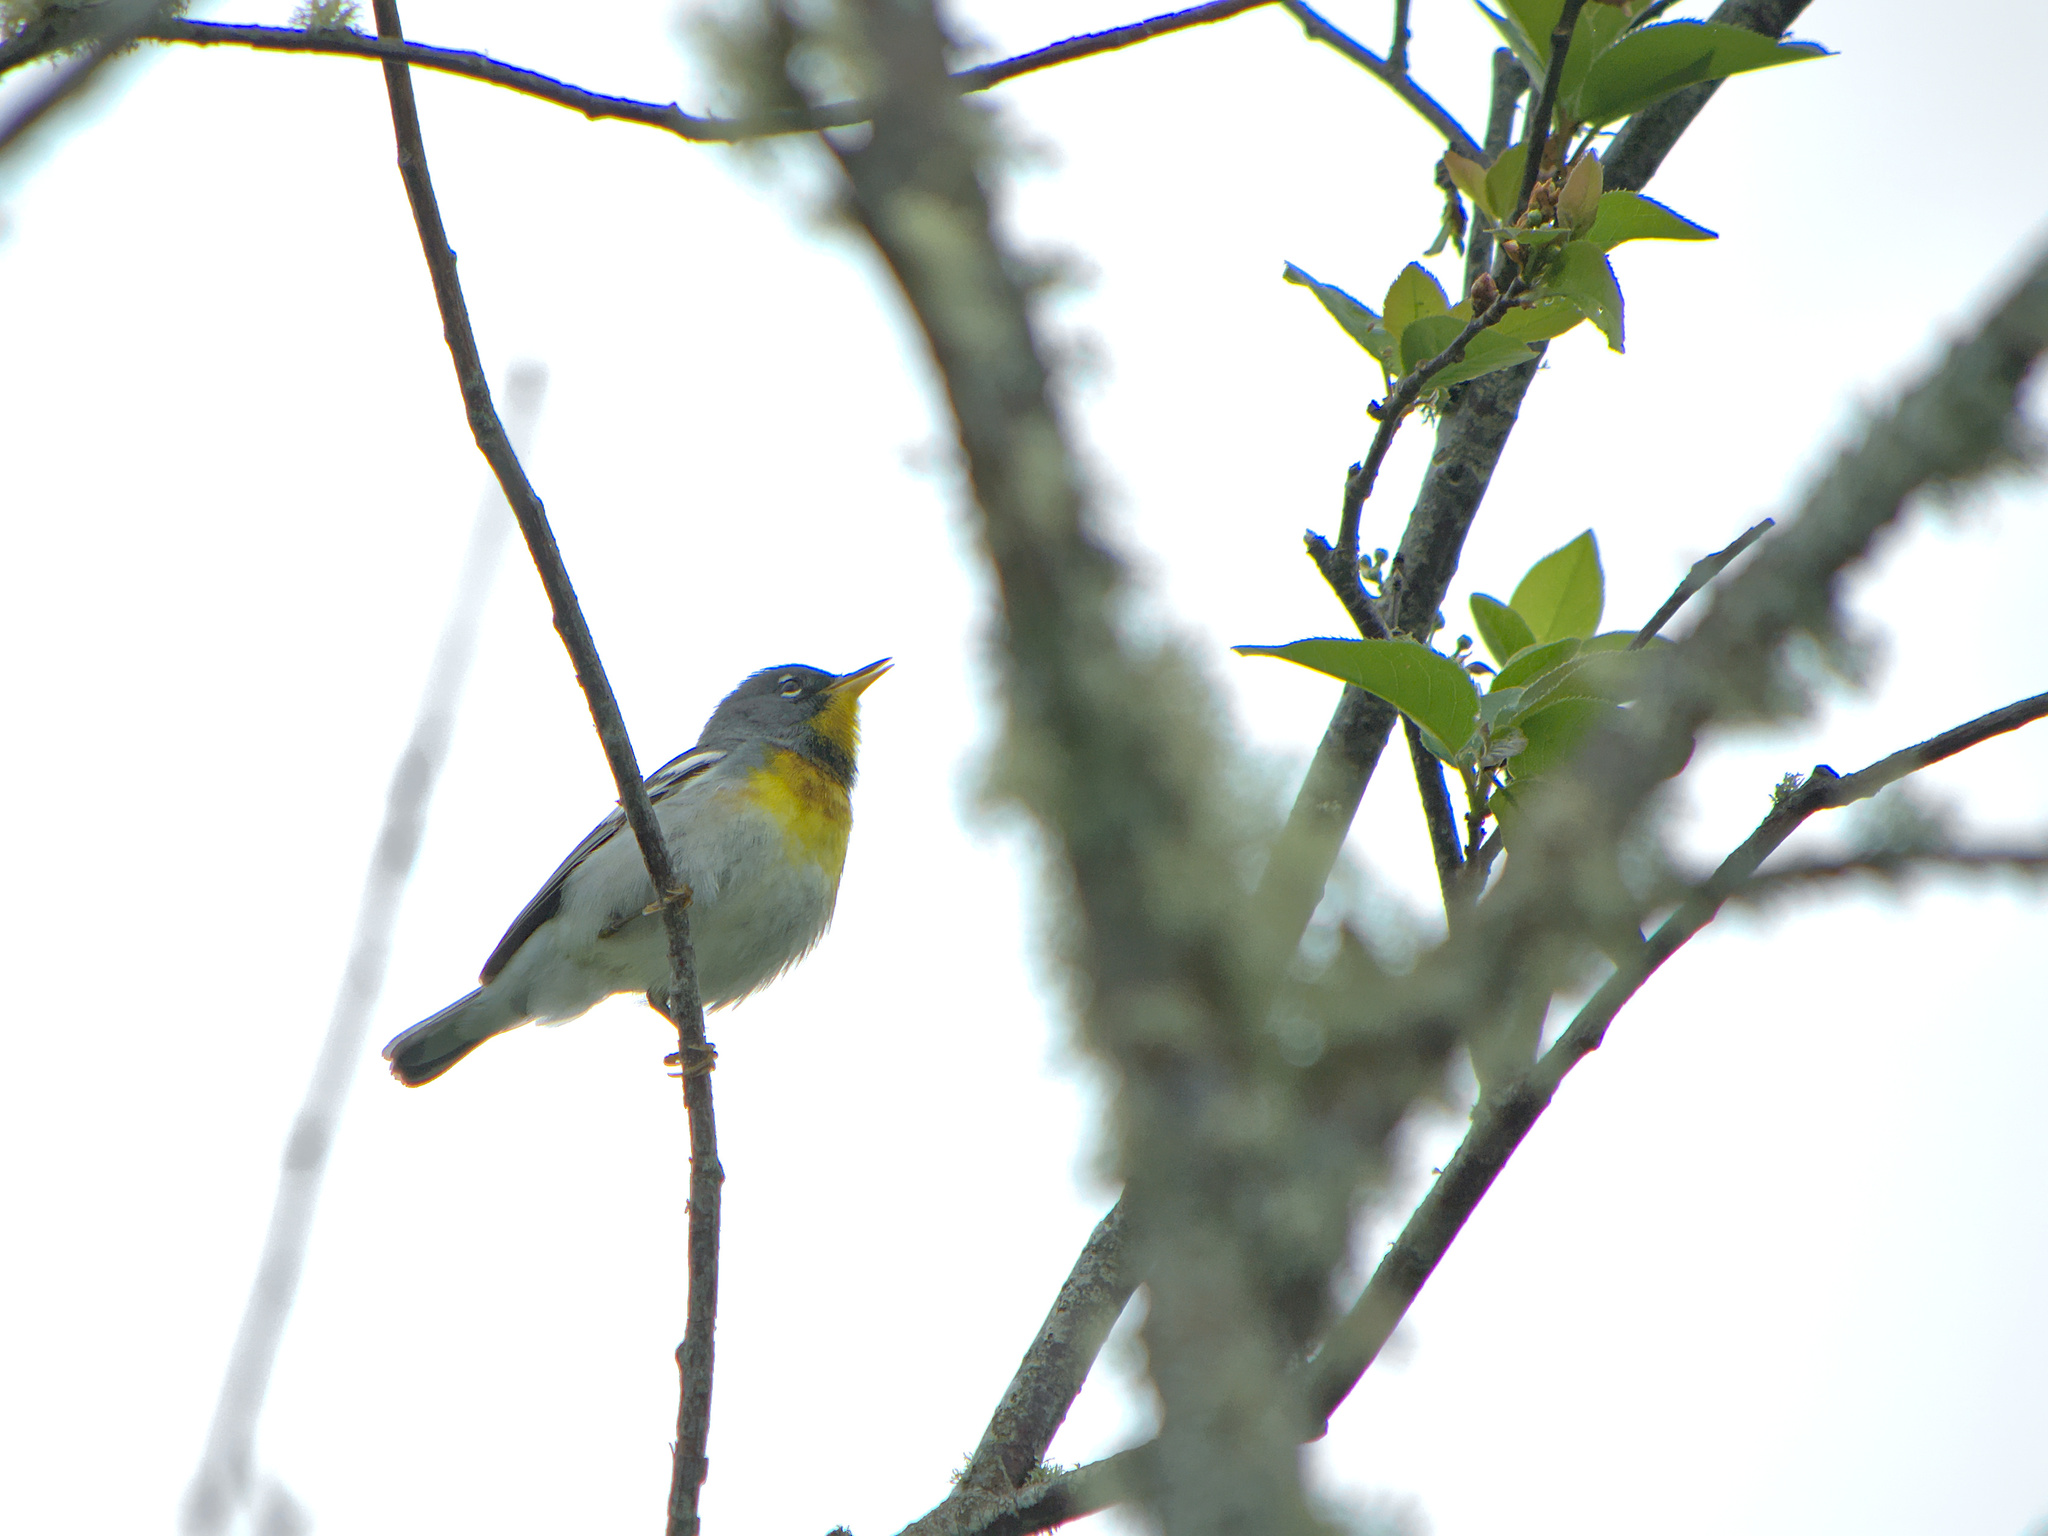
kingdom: Animalia
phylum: Chordata
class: Aves
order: Passeriformes
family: Parulidae
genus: Setophaga
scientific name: Setophaga americana
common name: Northern parula
